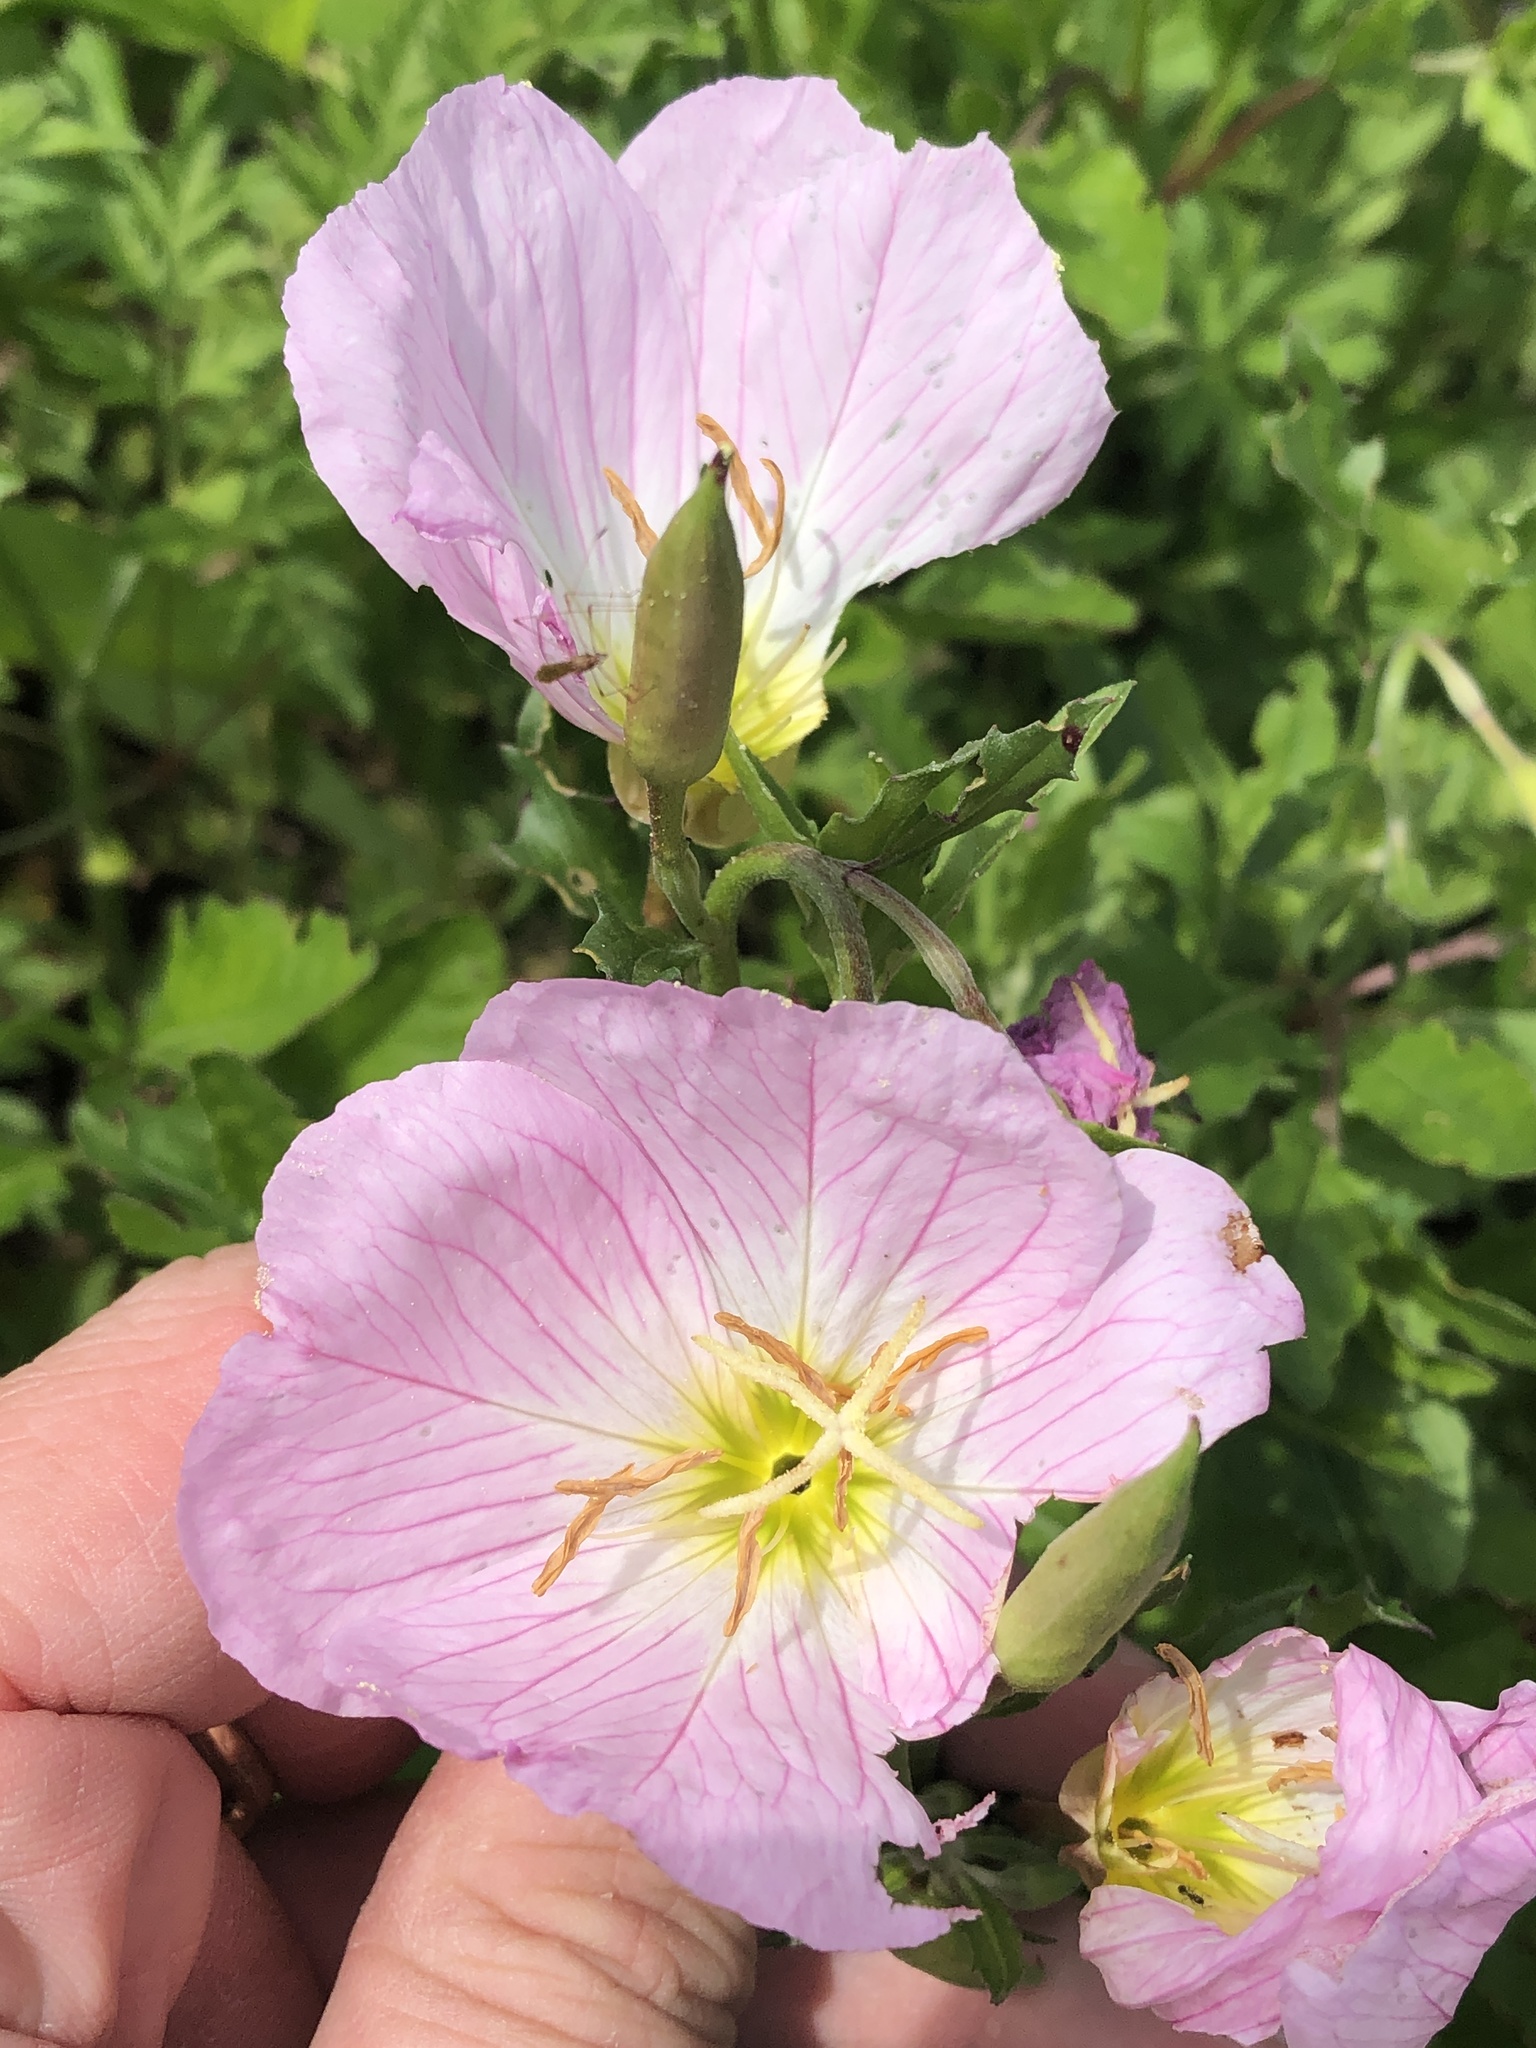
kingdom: Plantae
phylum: Tracheophyta
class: Magnoliopsida
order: Myrtales
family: Onagraceae
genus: Oenothera
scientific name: Oenothera speciosa
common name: White evening-primrose
